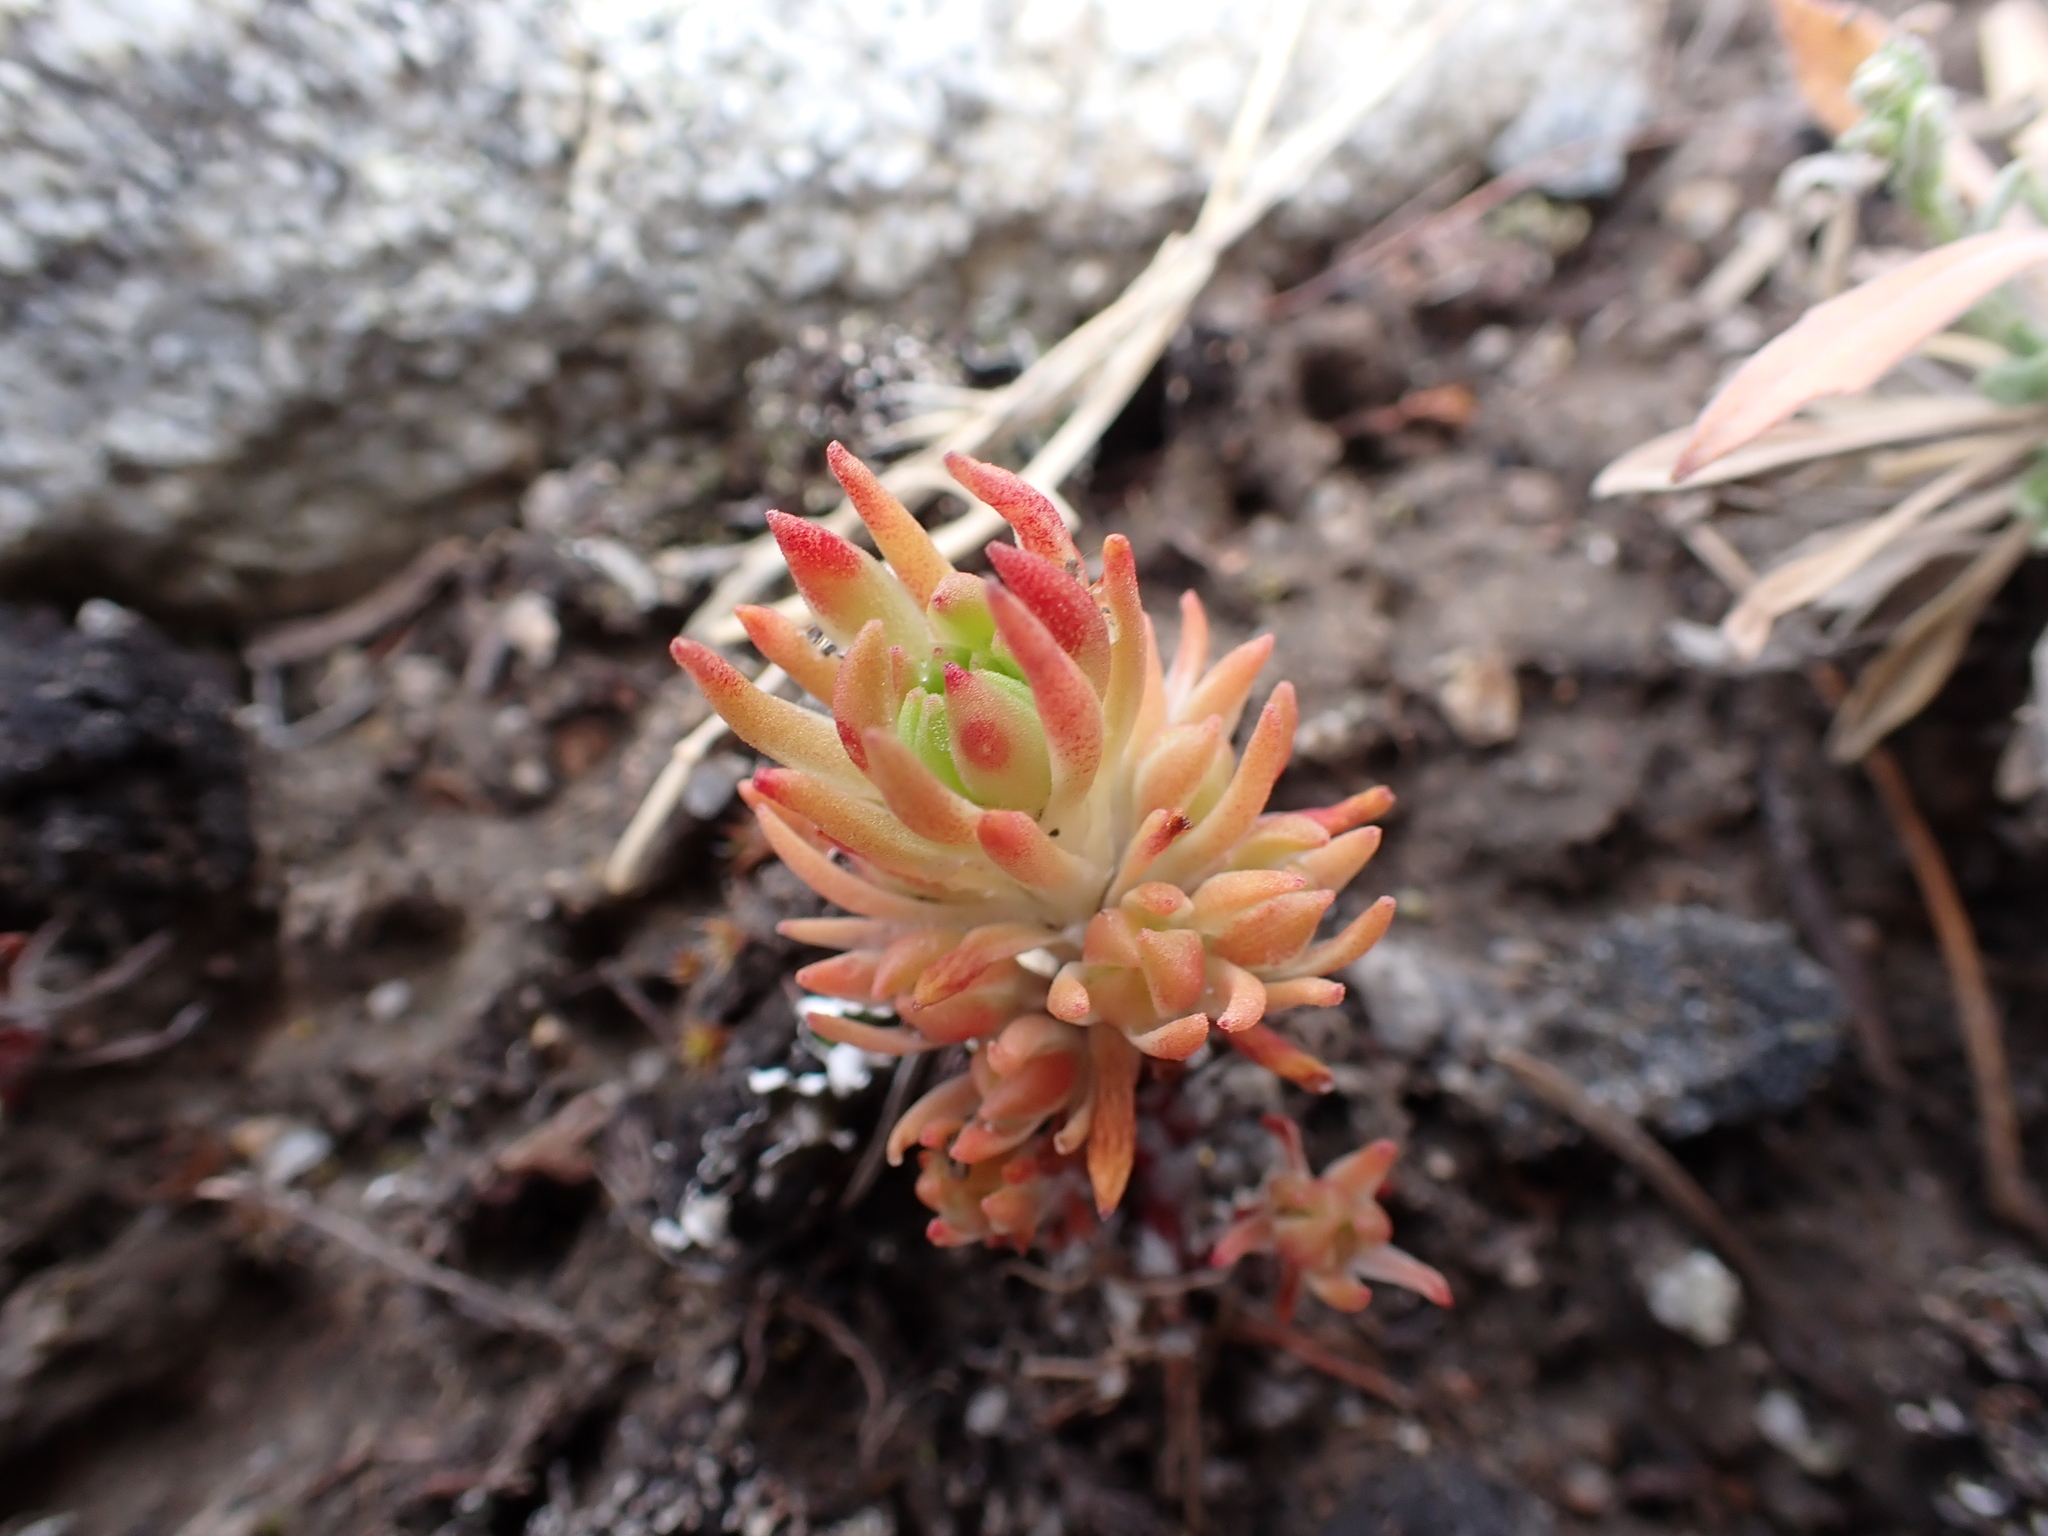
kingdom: Plantae
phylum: Tracheophyta
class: Magnoliopsida
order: Saxifragales
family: Crassulaceae
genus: Sedum
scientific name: Sedum stenopetalum
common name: Narrow-petaled stonecrop
